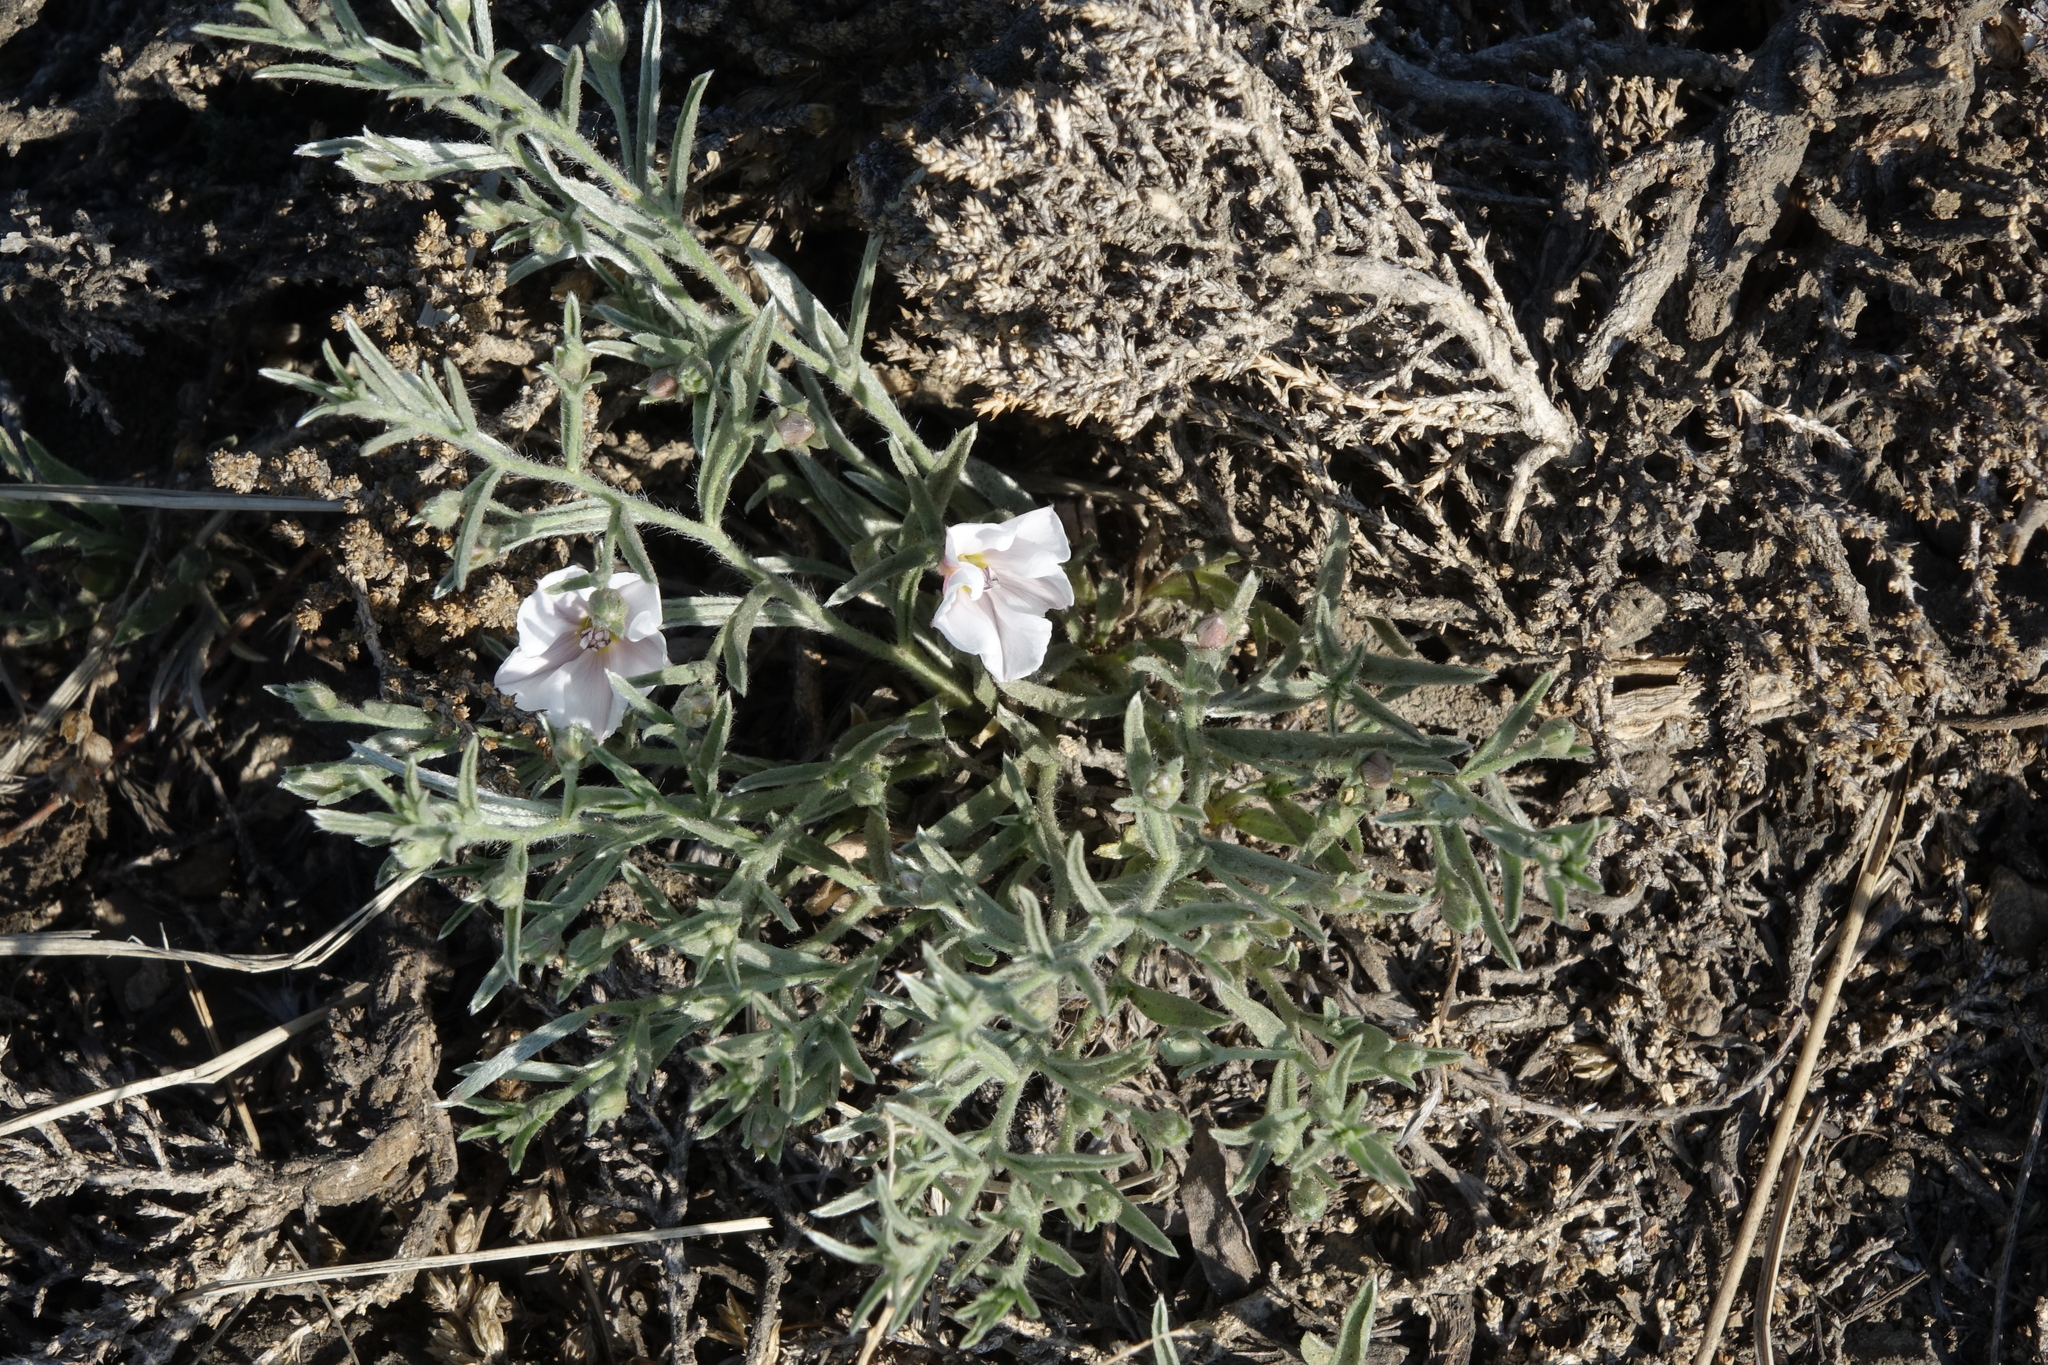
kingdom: Plantae
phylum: Tracheophyta
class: Magnoliopsida
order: Solanales
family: Convolvulaceae
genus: Convolvulus
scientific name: Convolvulus ammannii
